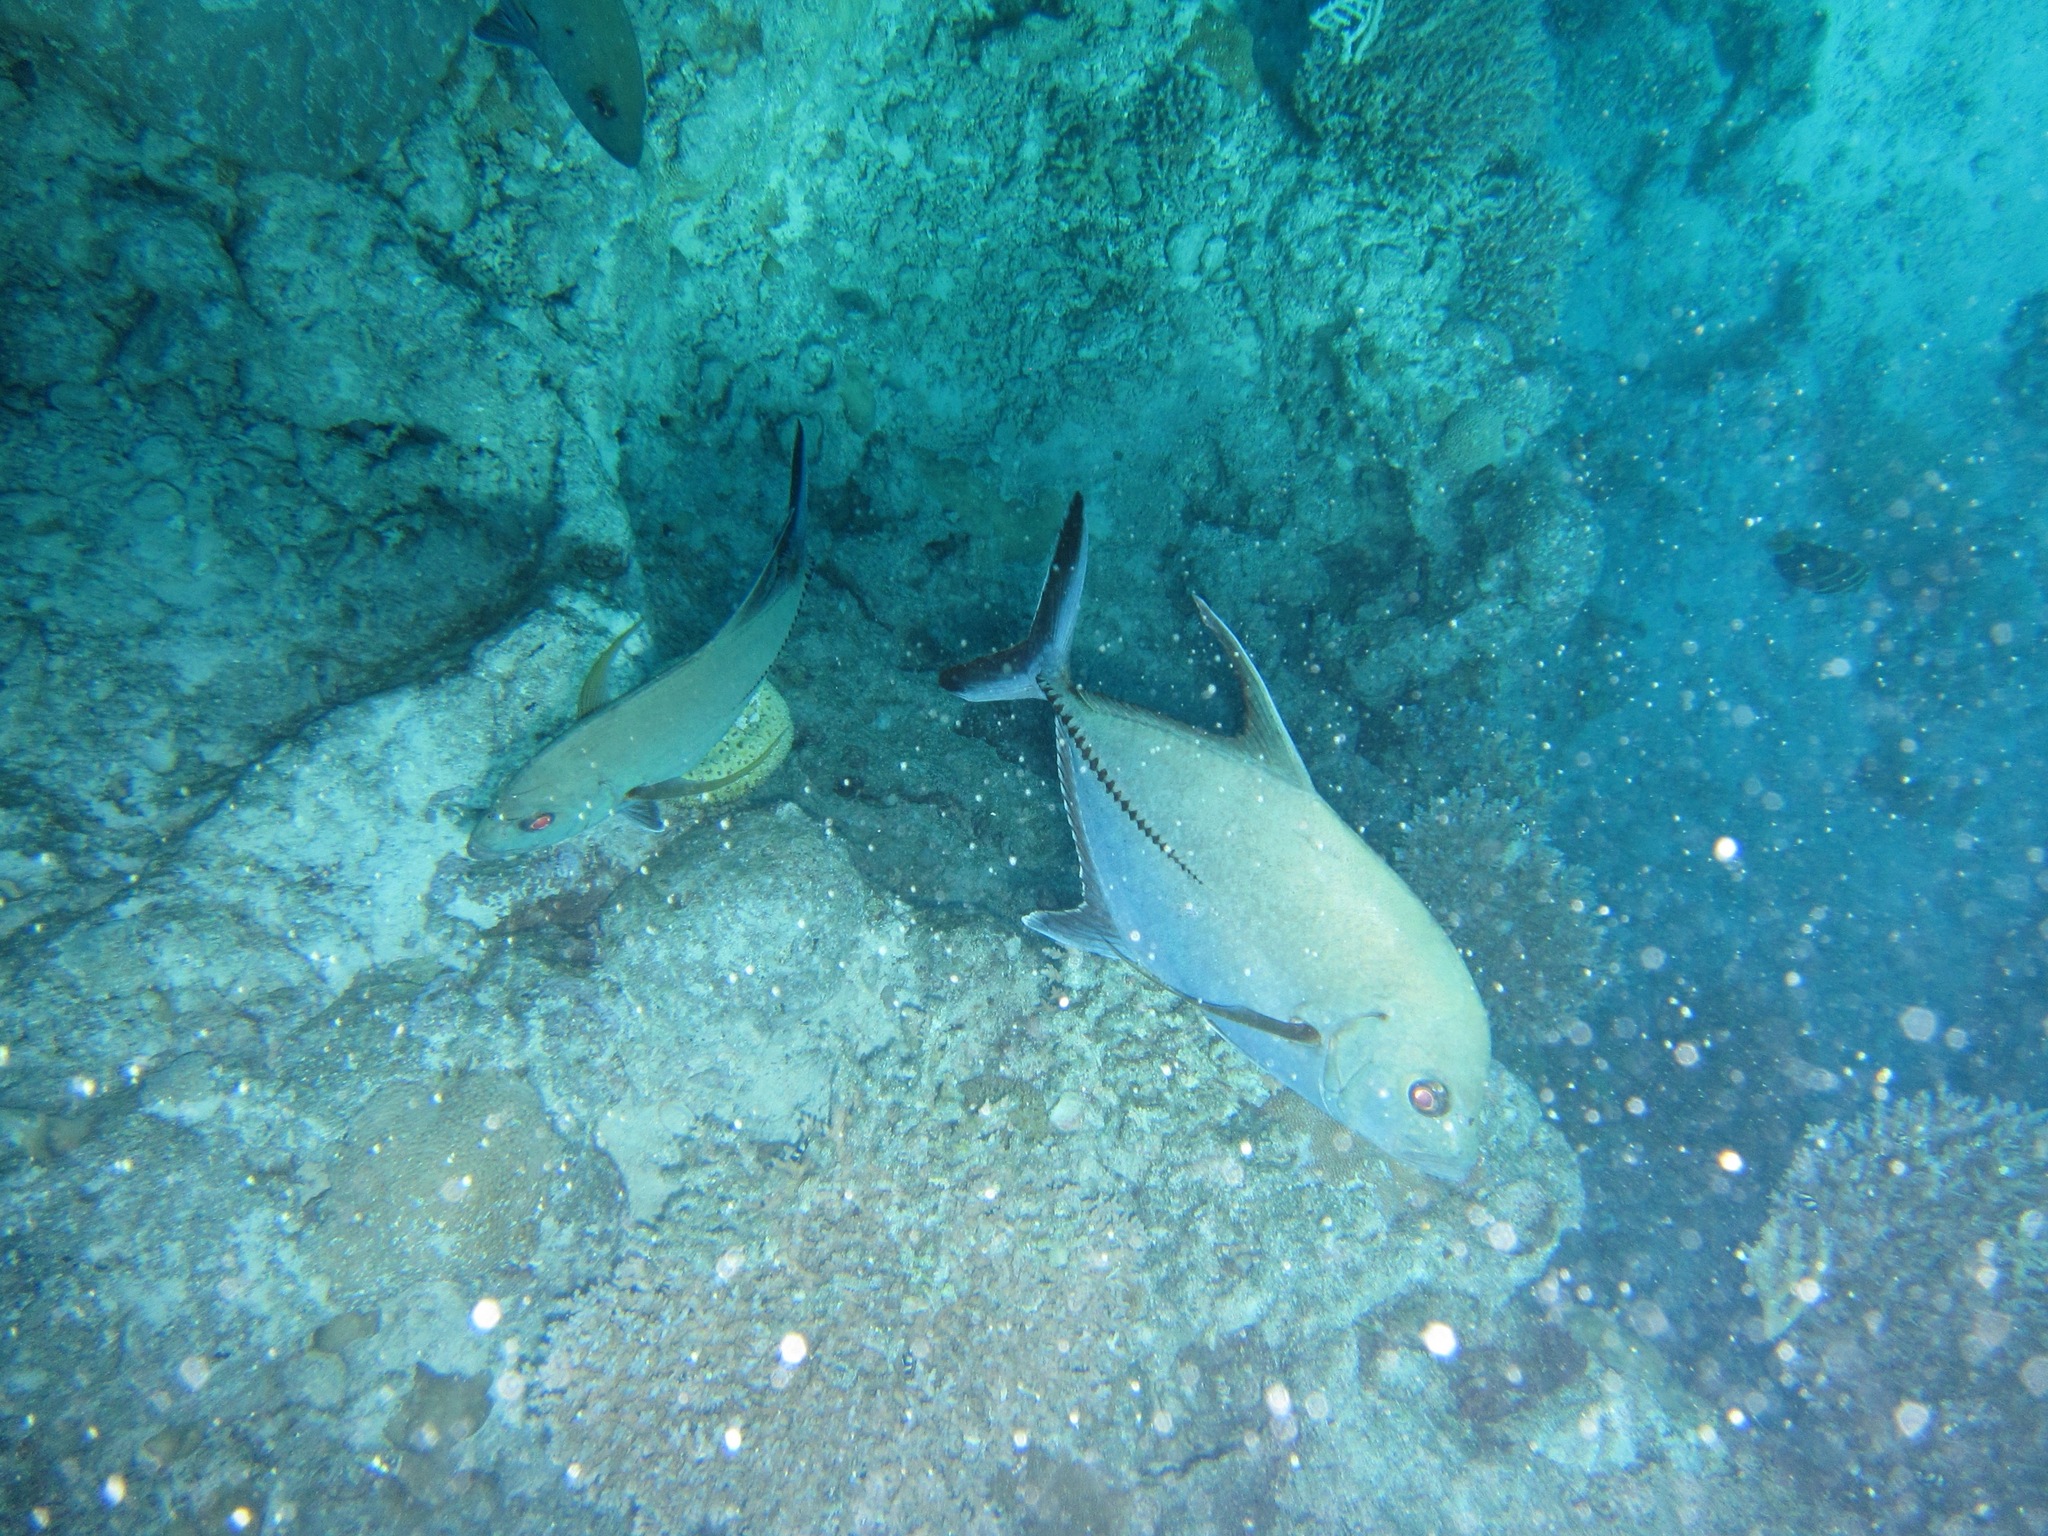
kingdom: Animalia
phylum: Chordata
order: Perciformes
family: Carangidae
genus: Caranx
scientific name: Caranx lugubris
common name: Black jack
